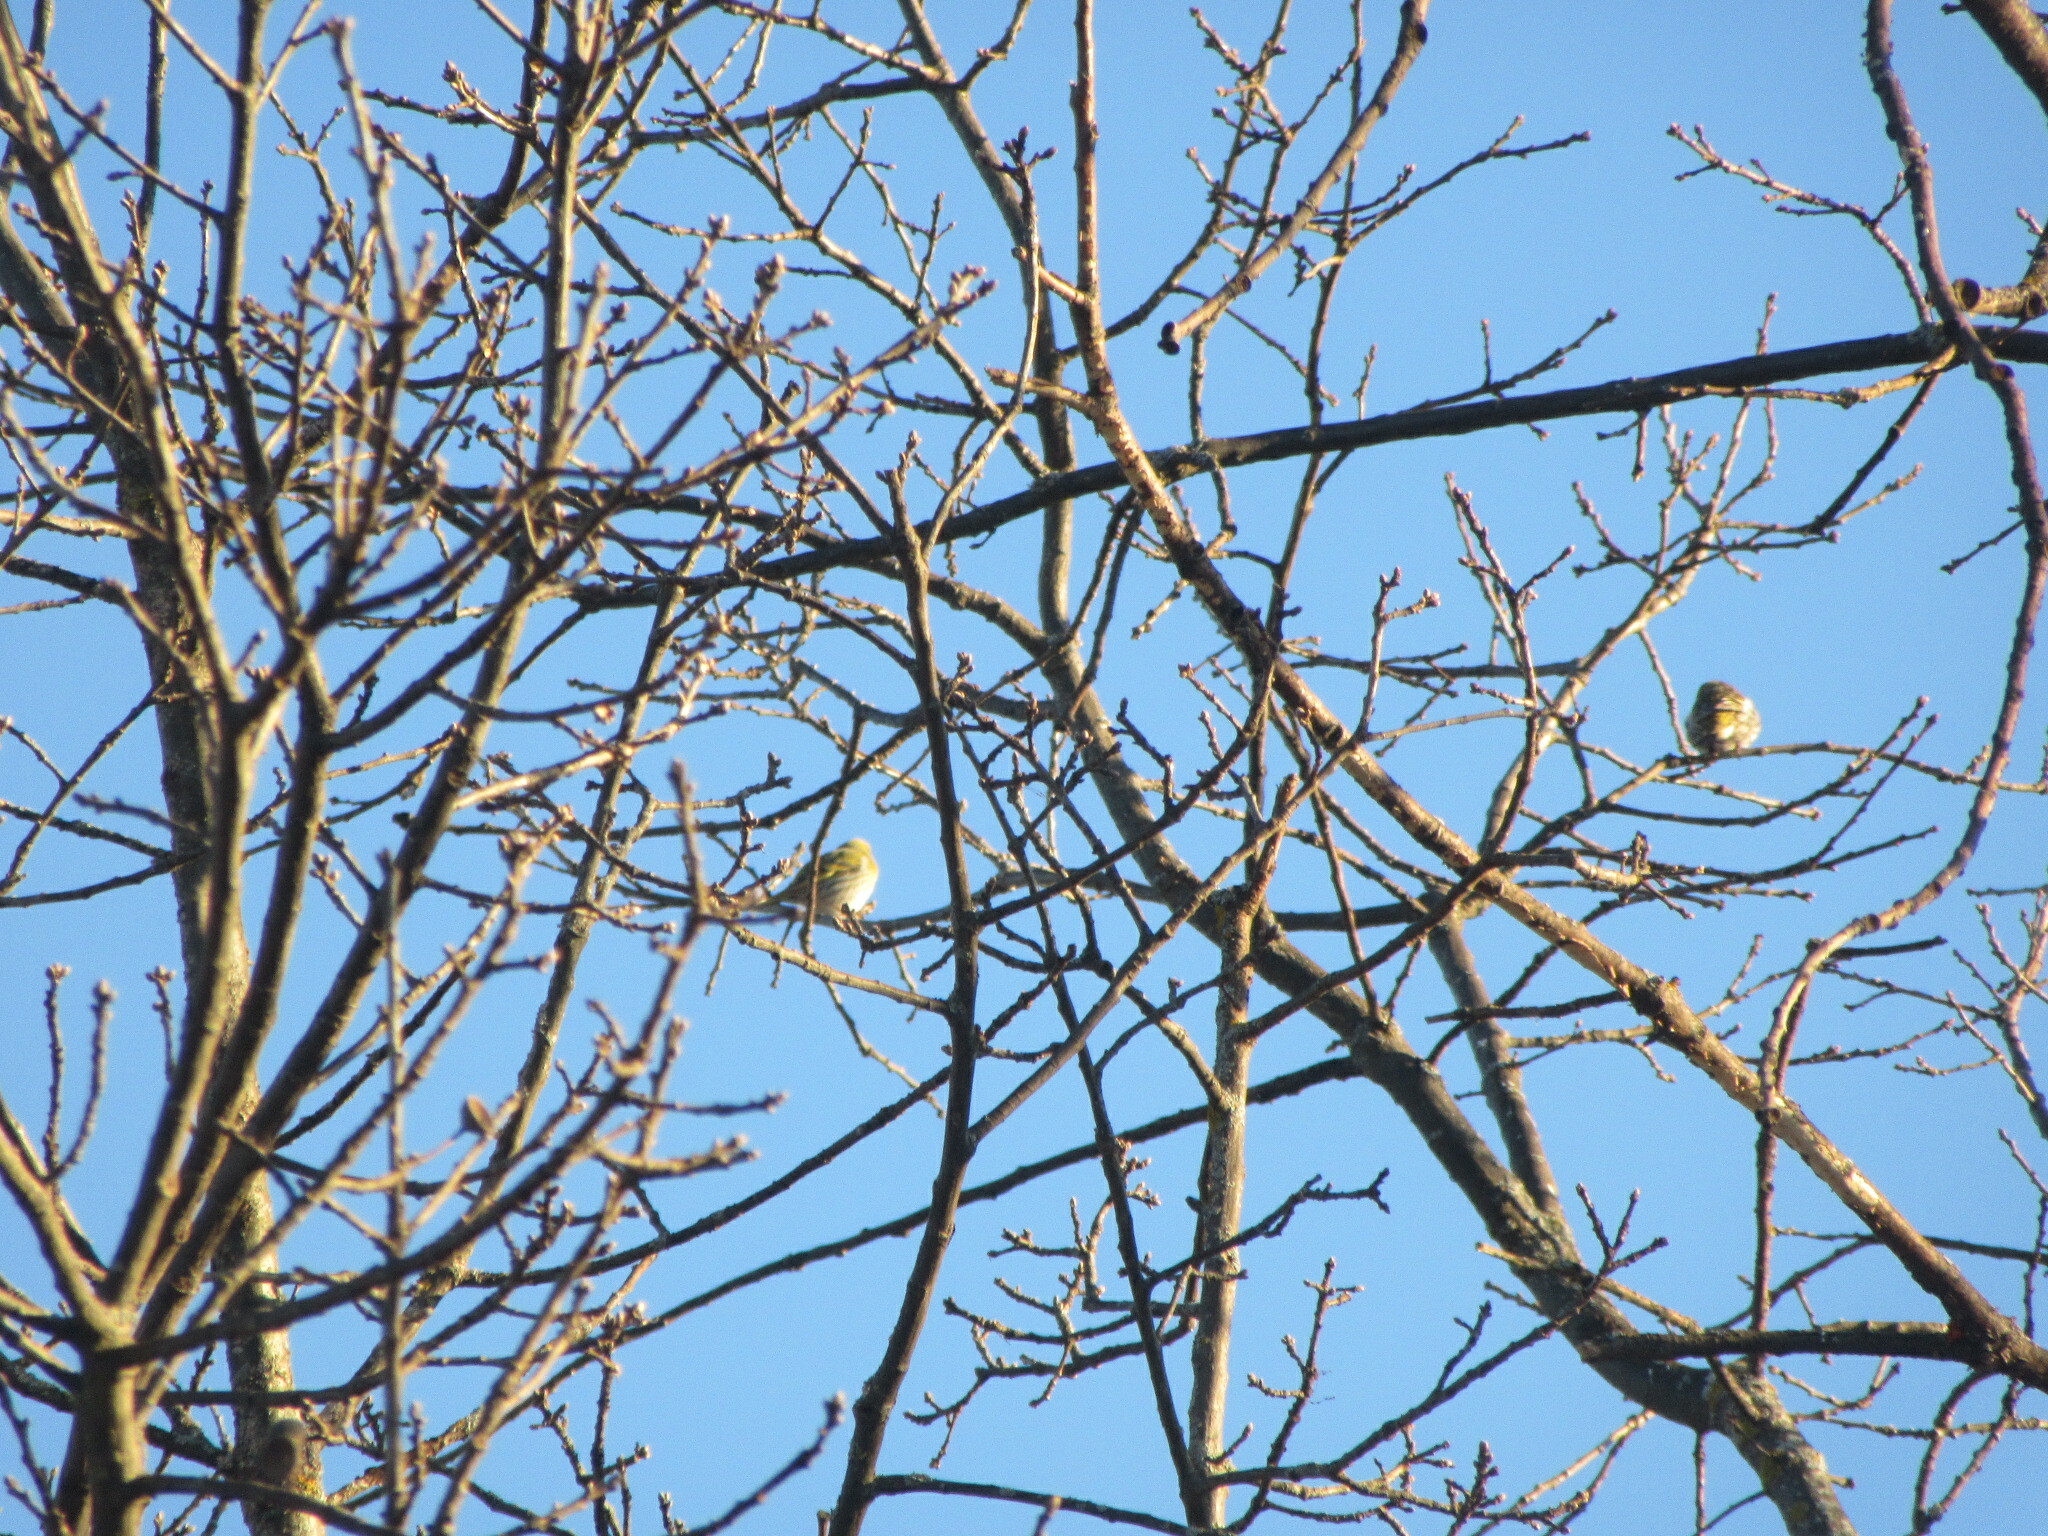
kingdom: Animalia
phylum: Chordata
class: Aves
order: Passeriformes
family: Fringillidae
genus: Spinus
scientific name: Spinus spinus
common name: Eurasian siskin
